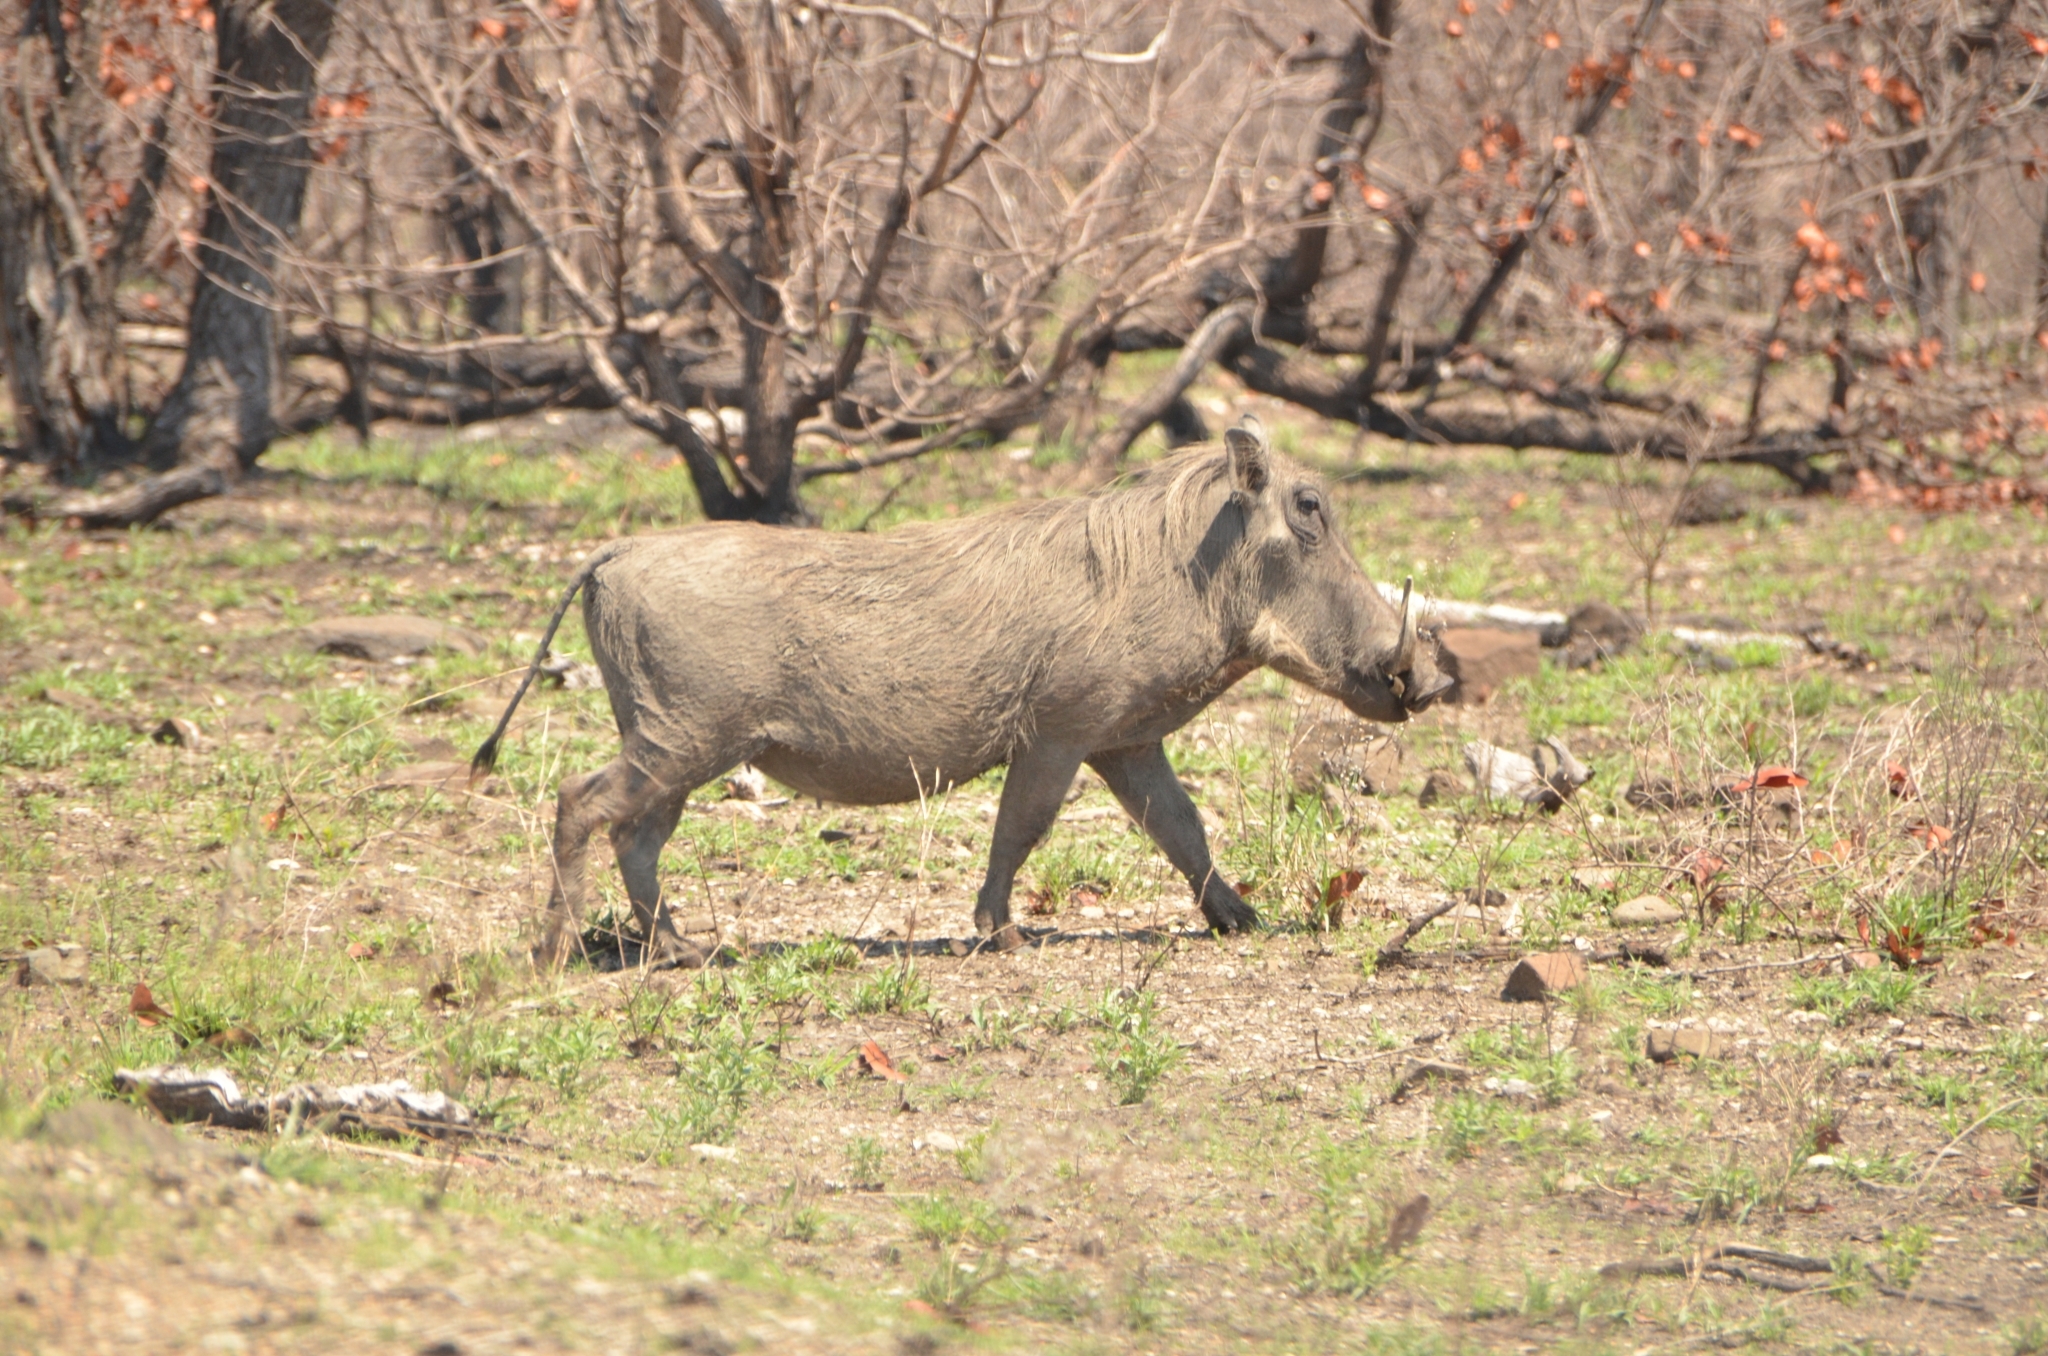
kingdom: Animalia
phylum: Chordata
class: Mammalia
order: Artiodactyla
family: Suidae
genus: Phacochoerus
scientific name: Phacochoerus africanus
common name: Common warthog
